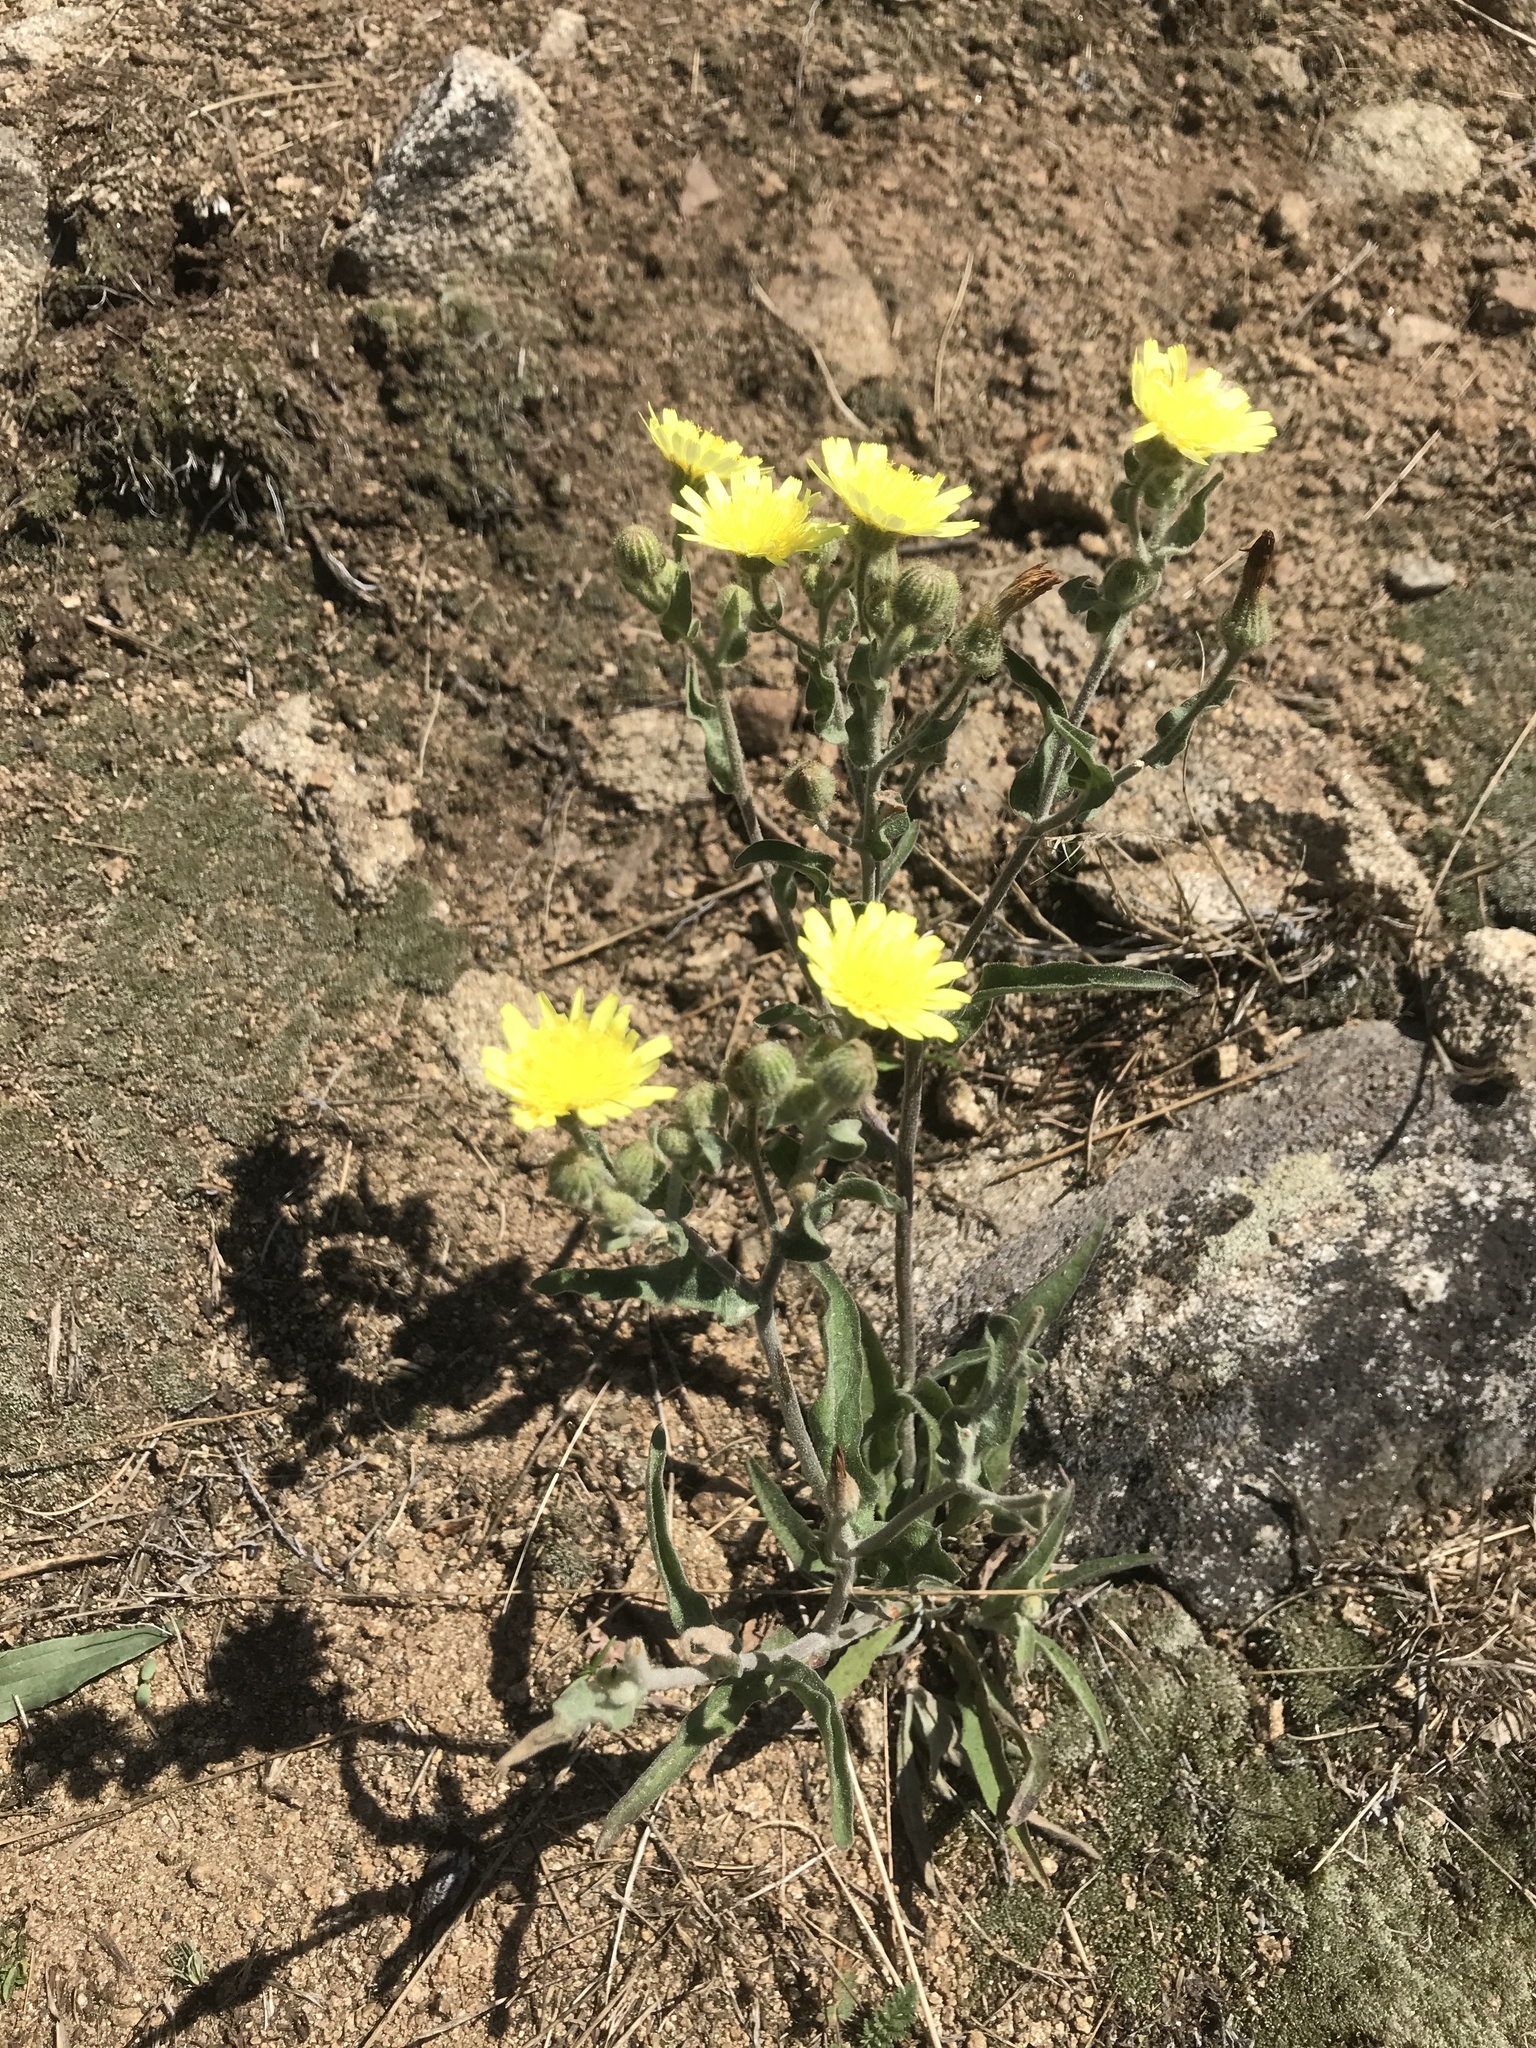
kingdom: Plantae
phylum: Tracheophyta
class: Magnoliopsida
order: Asterales
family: Asteraceae
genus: Andryala
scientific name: Andryala integrifolia
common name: Common andryala
